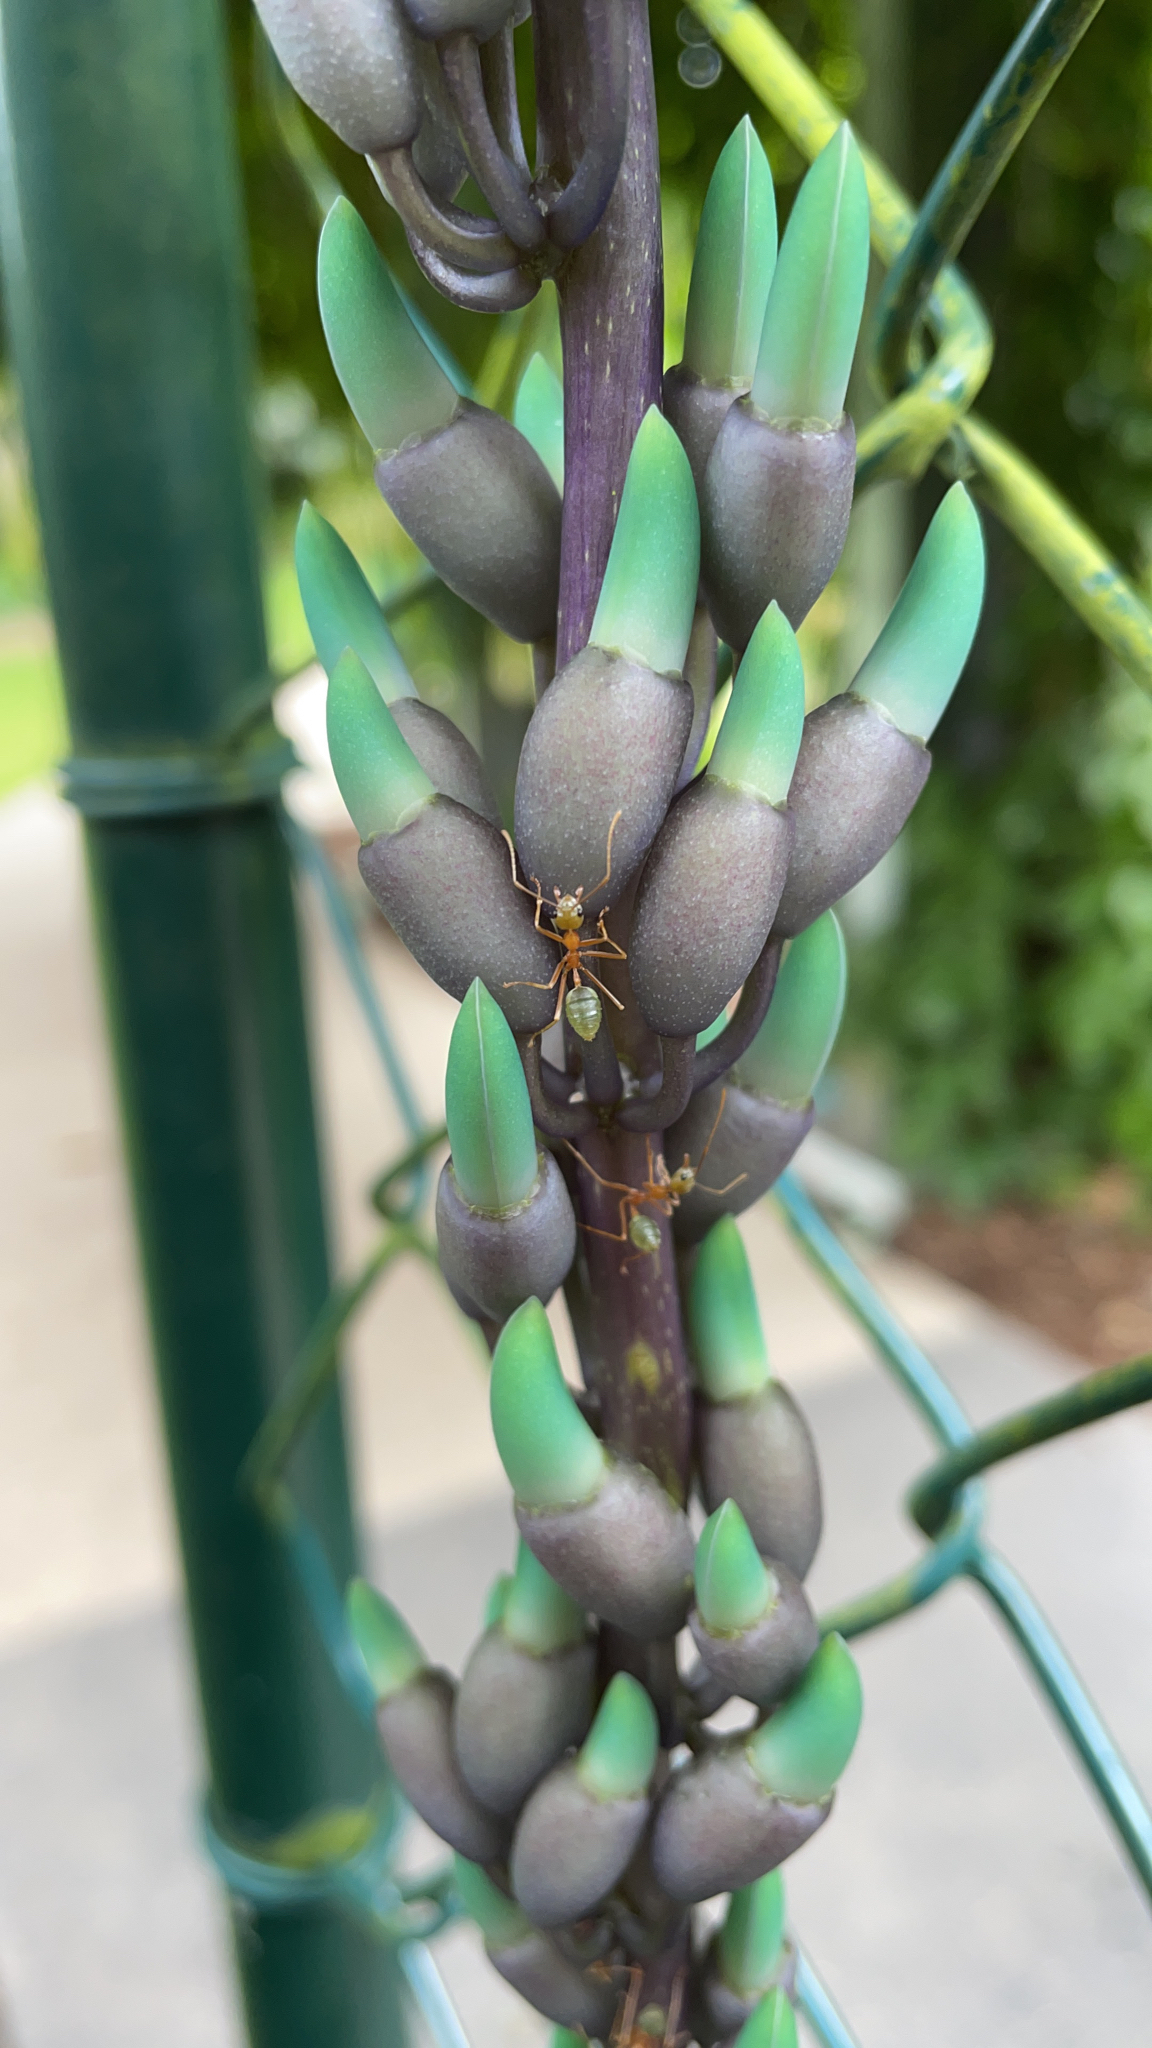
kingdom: Animalia
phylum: Arthropoda
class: Insecta
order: Hymenoptera
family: Formicidae
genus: Oecophylla
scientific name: Oecophylla smaragdina
